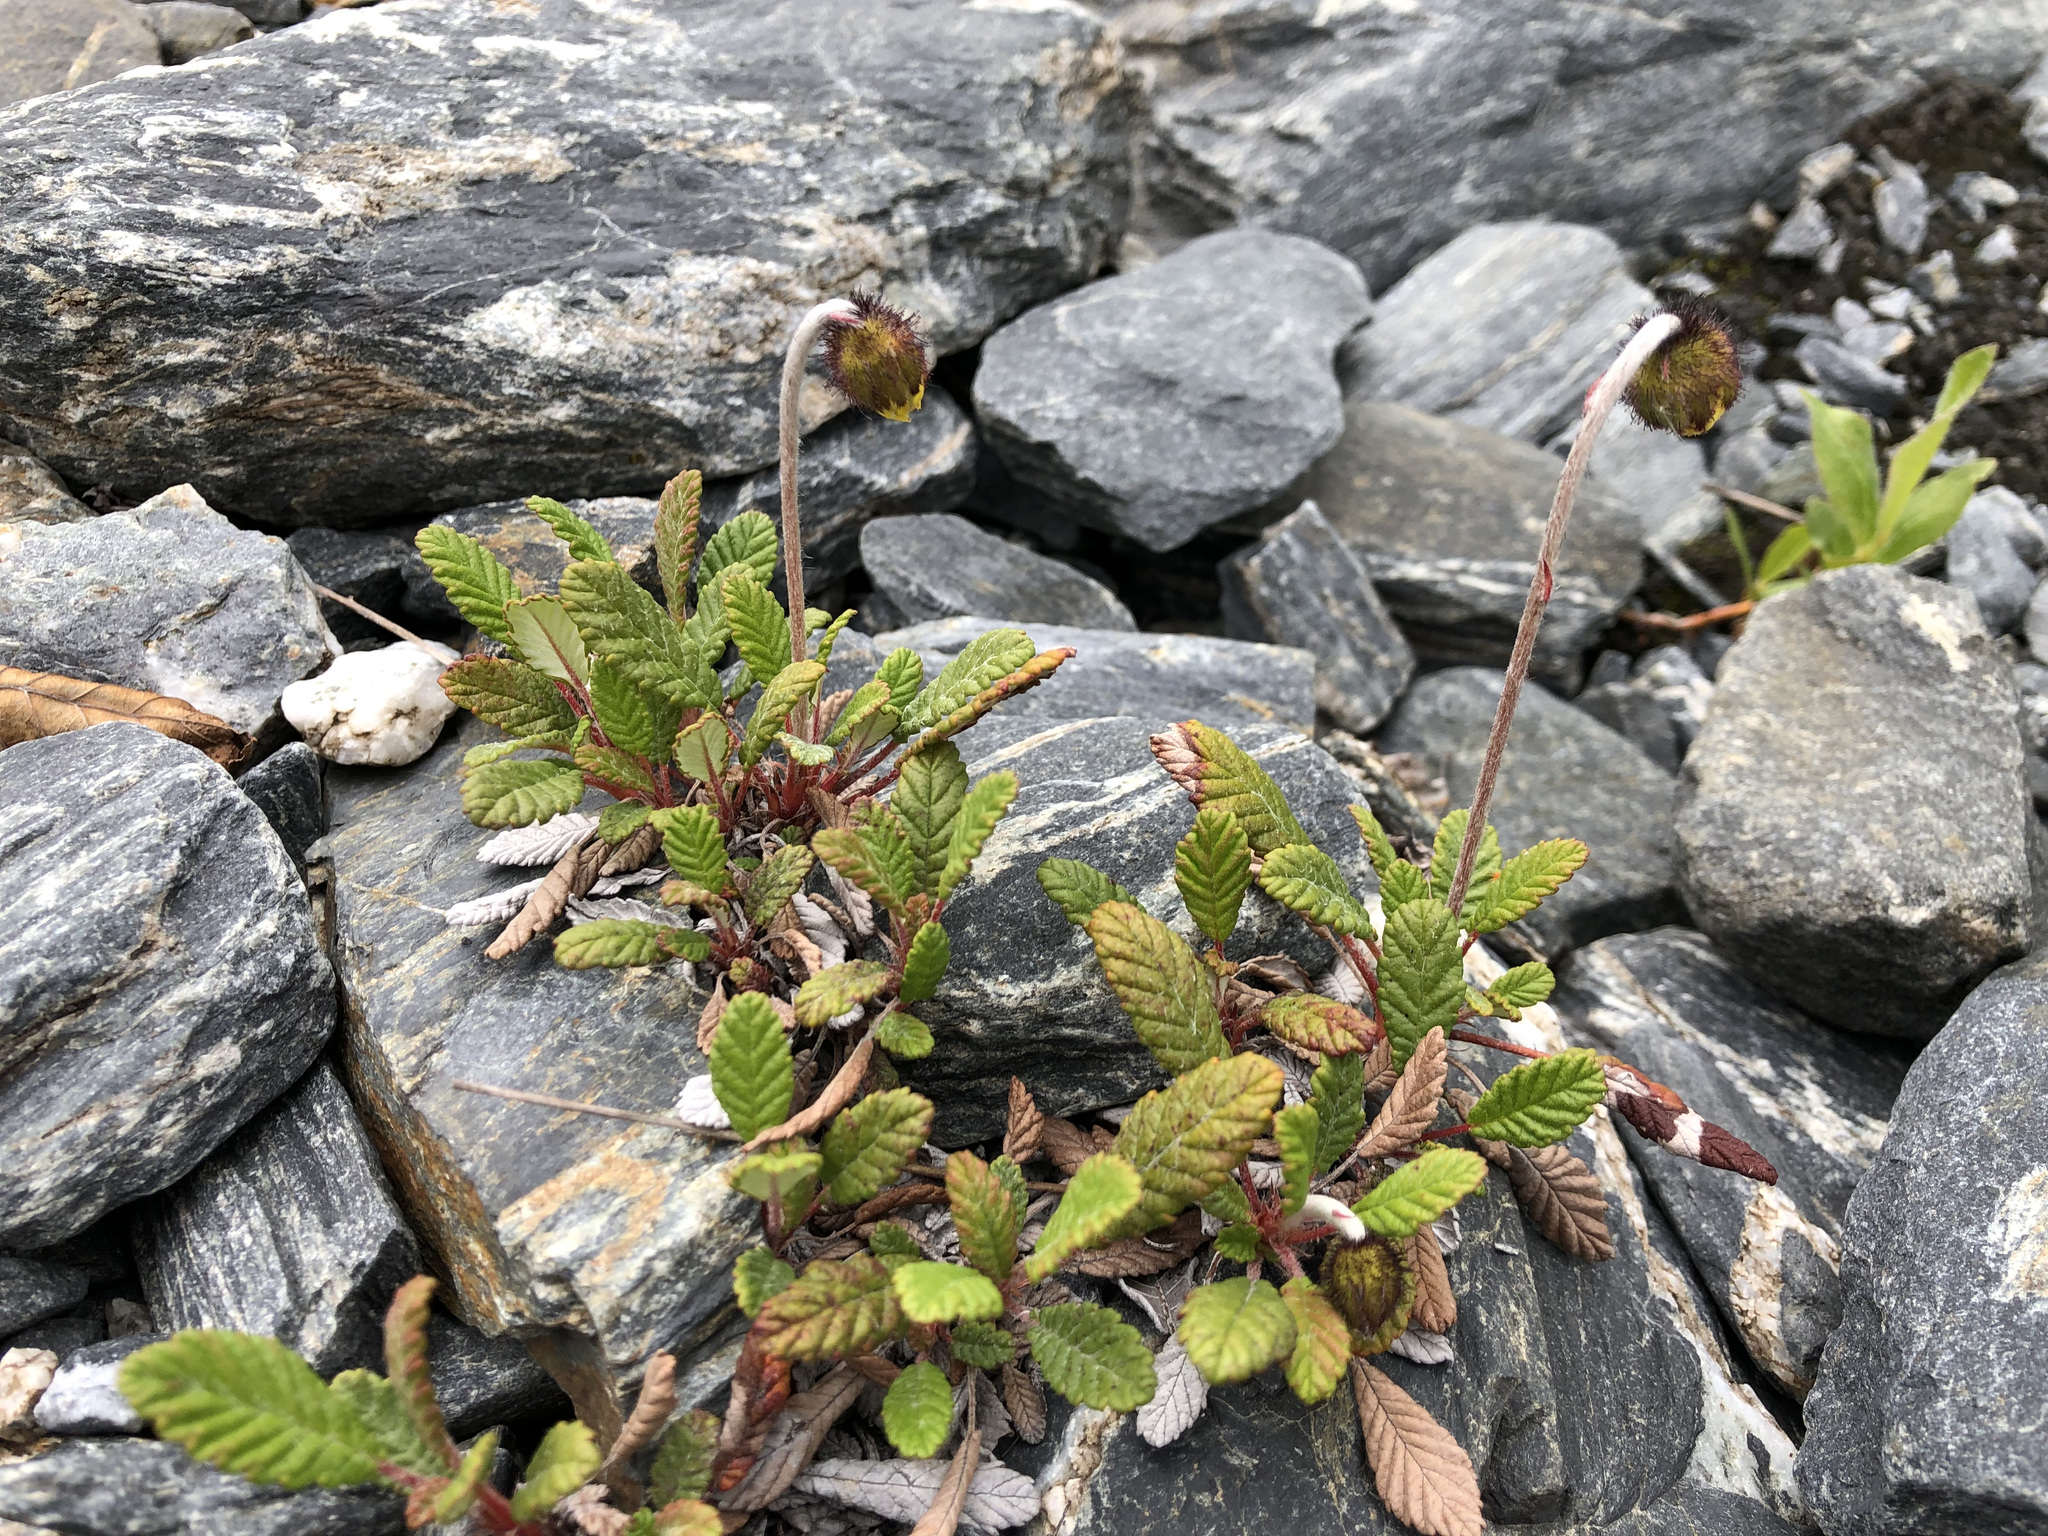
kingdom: Plantae
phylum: Tracheophyta
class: Magnoliopsida
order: Rosales
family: Rosaceae
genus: Dryas
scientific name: Dryas drummondii
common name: Drummond's dryad
